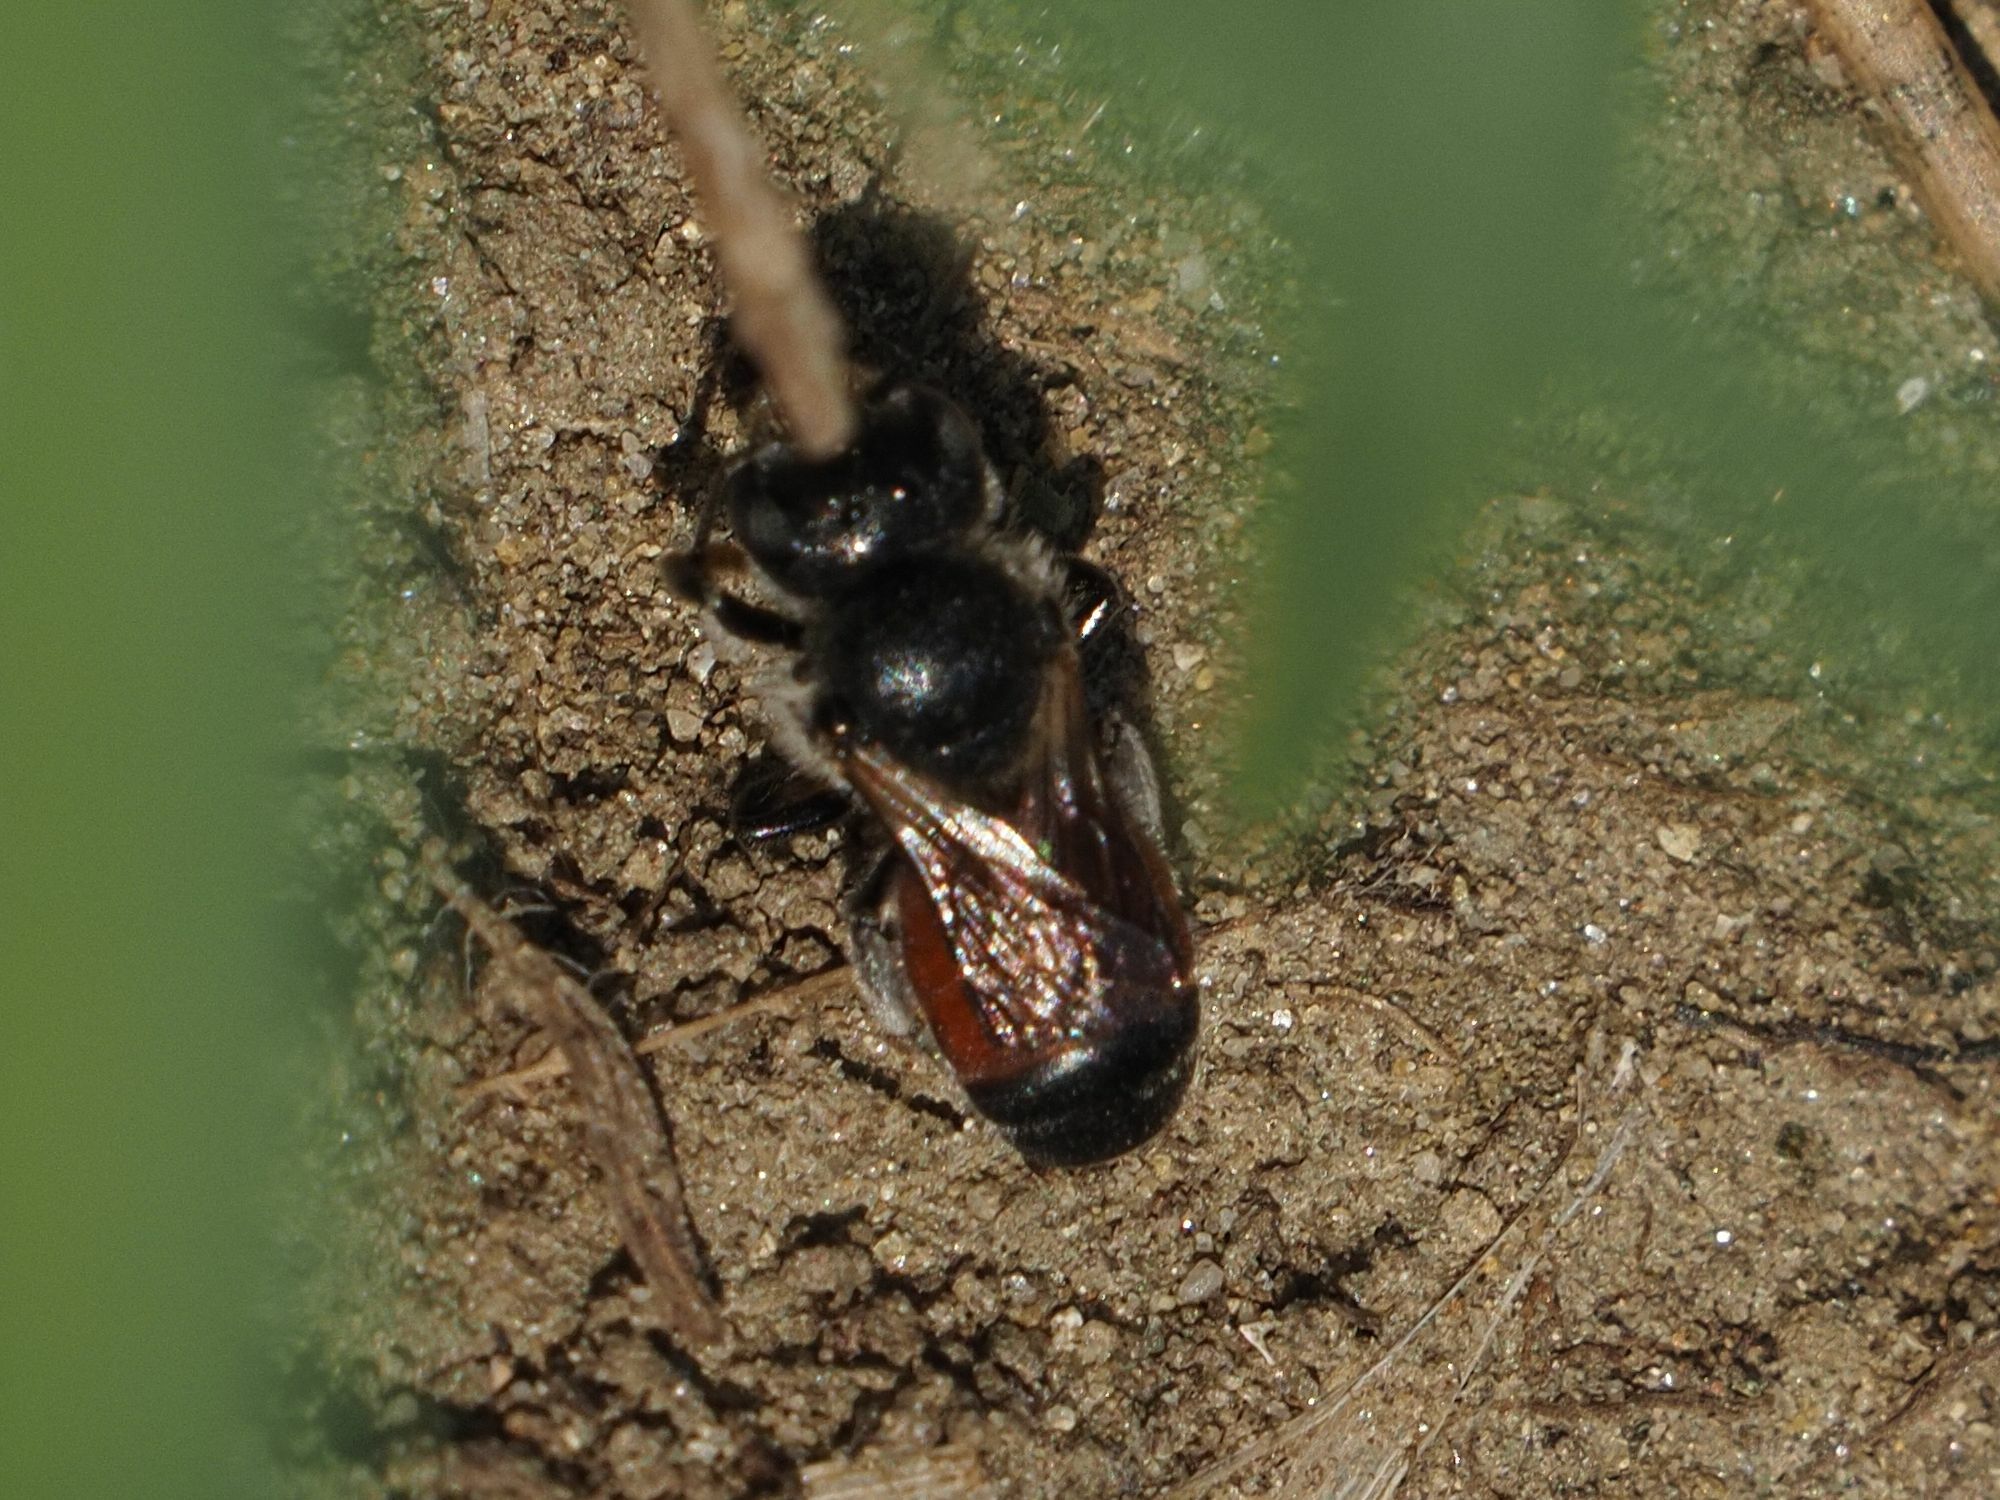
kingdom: Animalia
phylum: Arthropoda
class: Insecta
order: Hymenoptera
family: Megachilidae
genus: Osmia
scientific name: Osmia andrenoides
